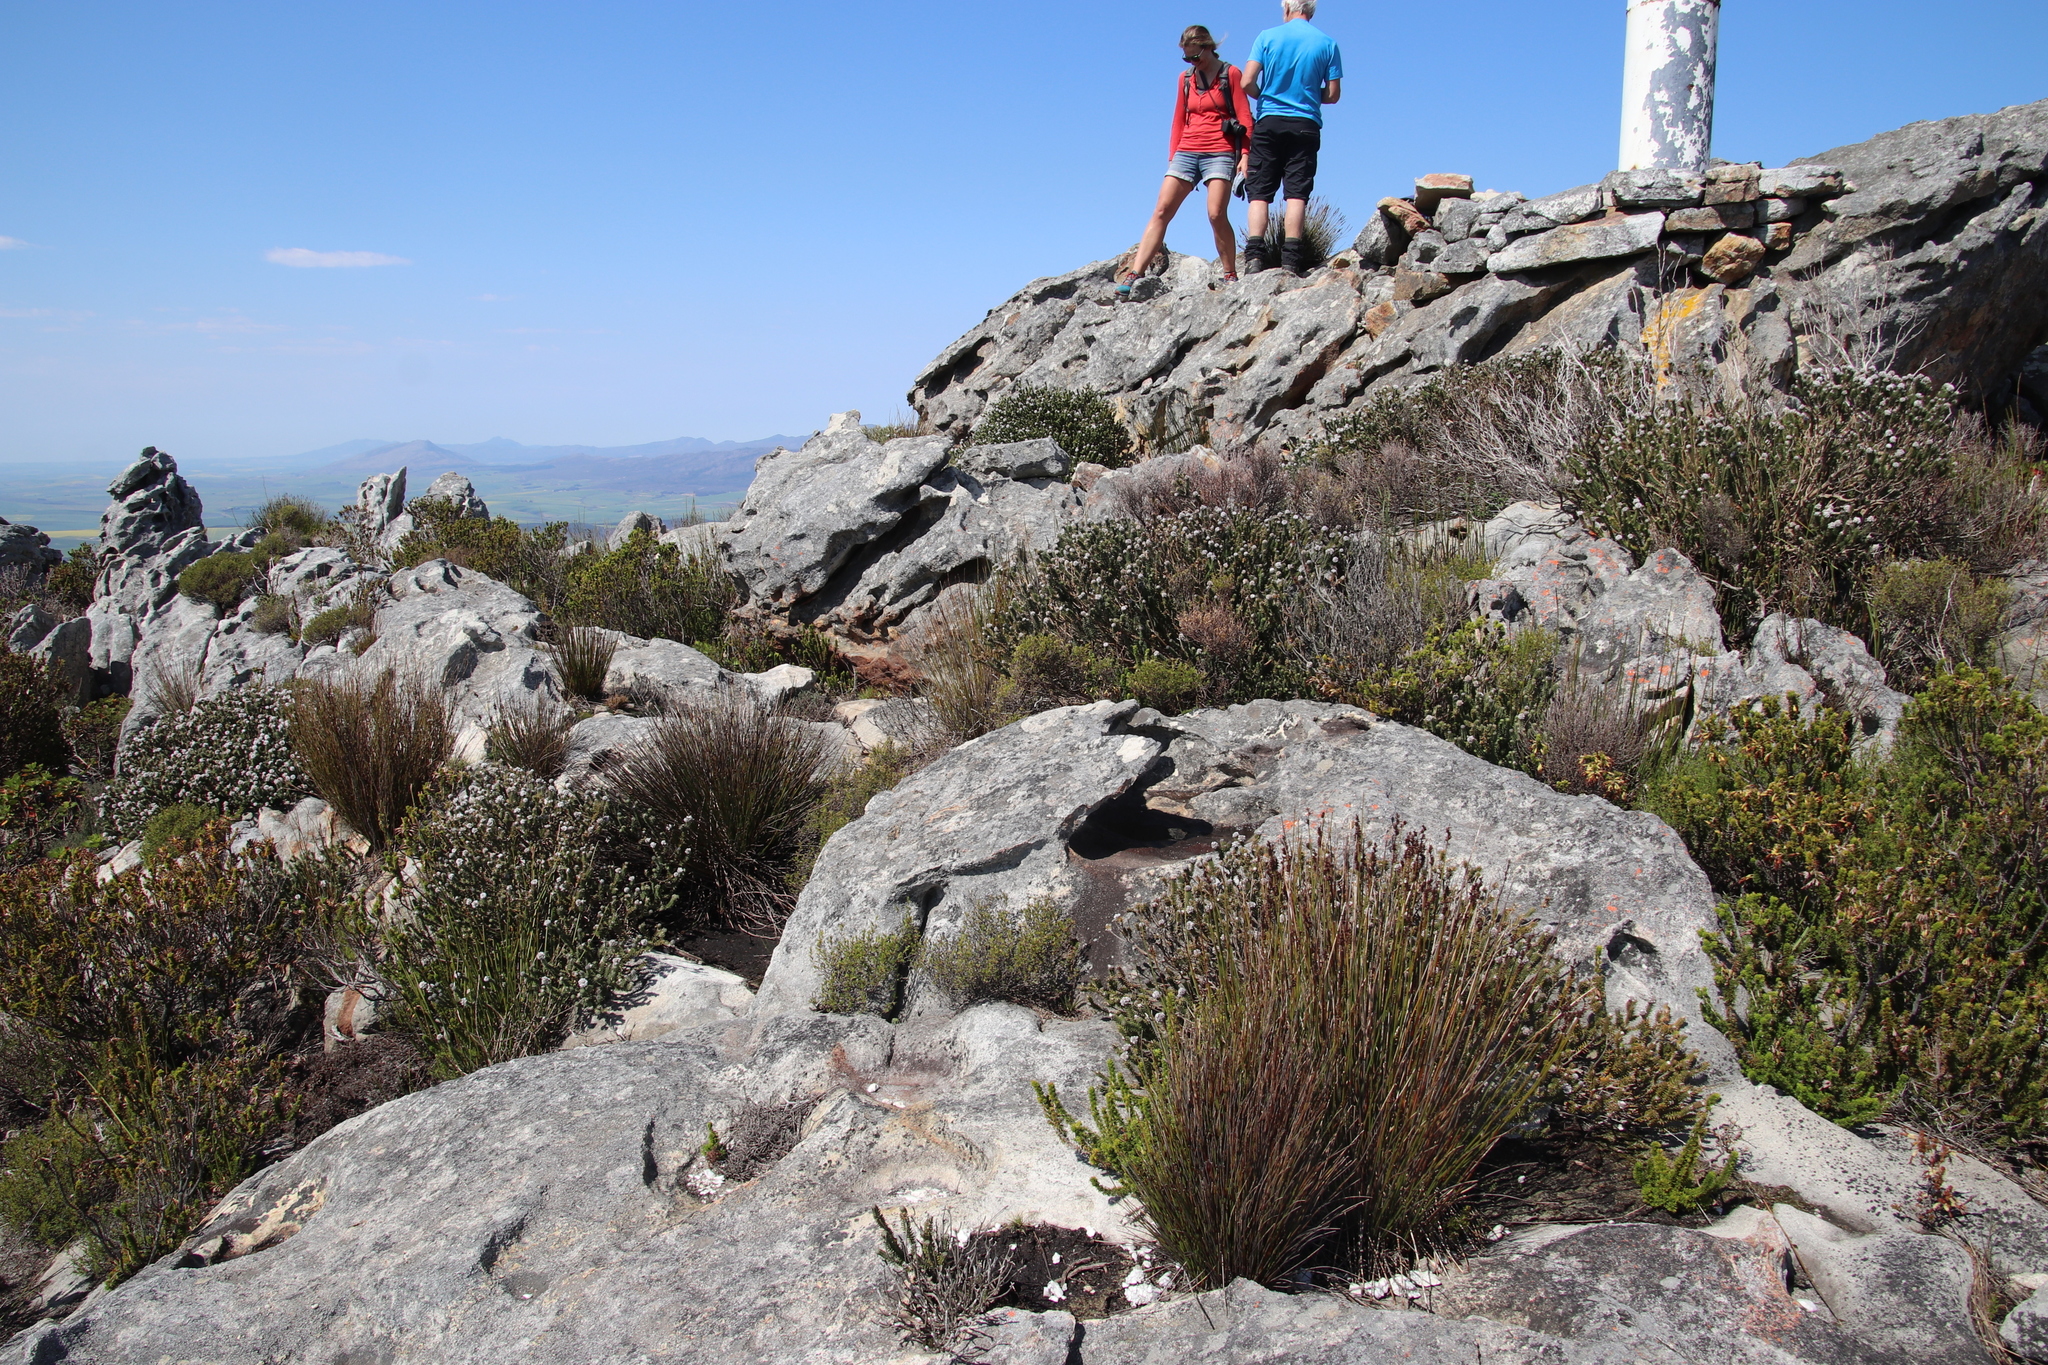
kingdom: Plantae
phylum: Tracheophyta
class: Magnoliopsida
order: Lamiales
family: Stilbaceae
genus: Kogelbergia
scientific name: Kogelbergia verticillata
